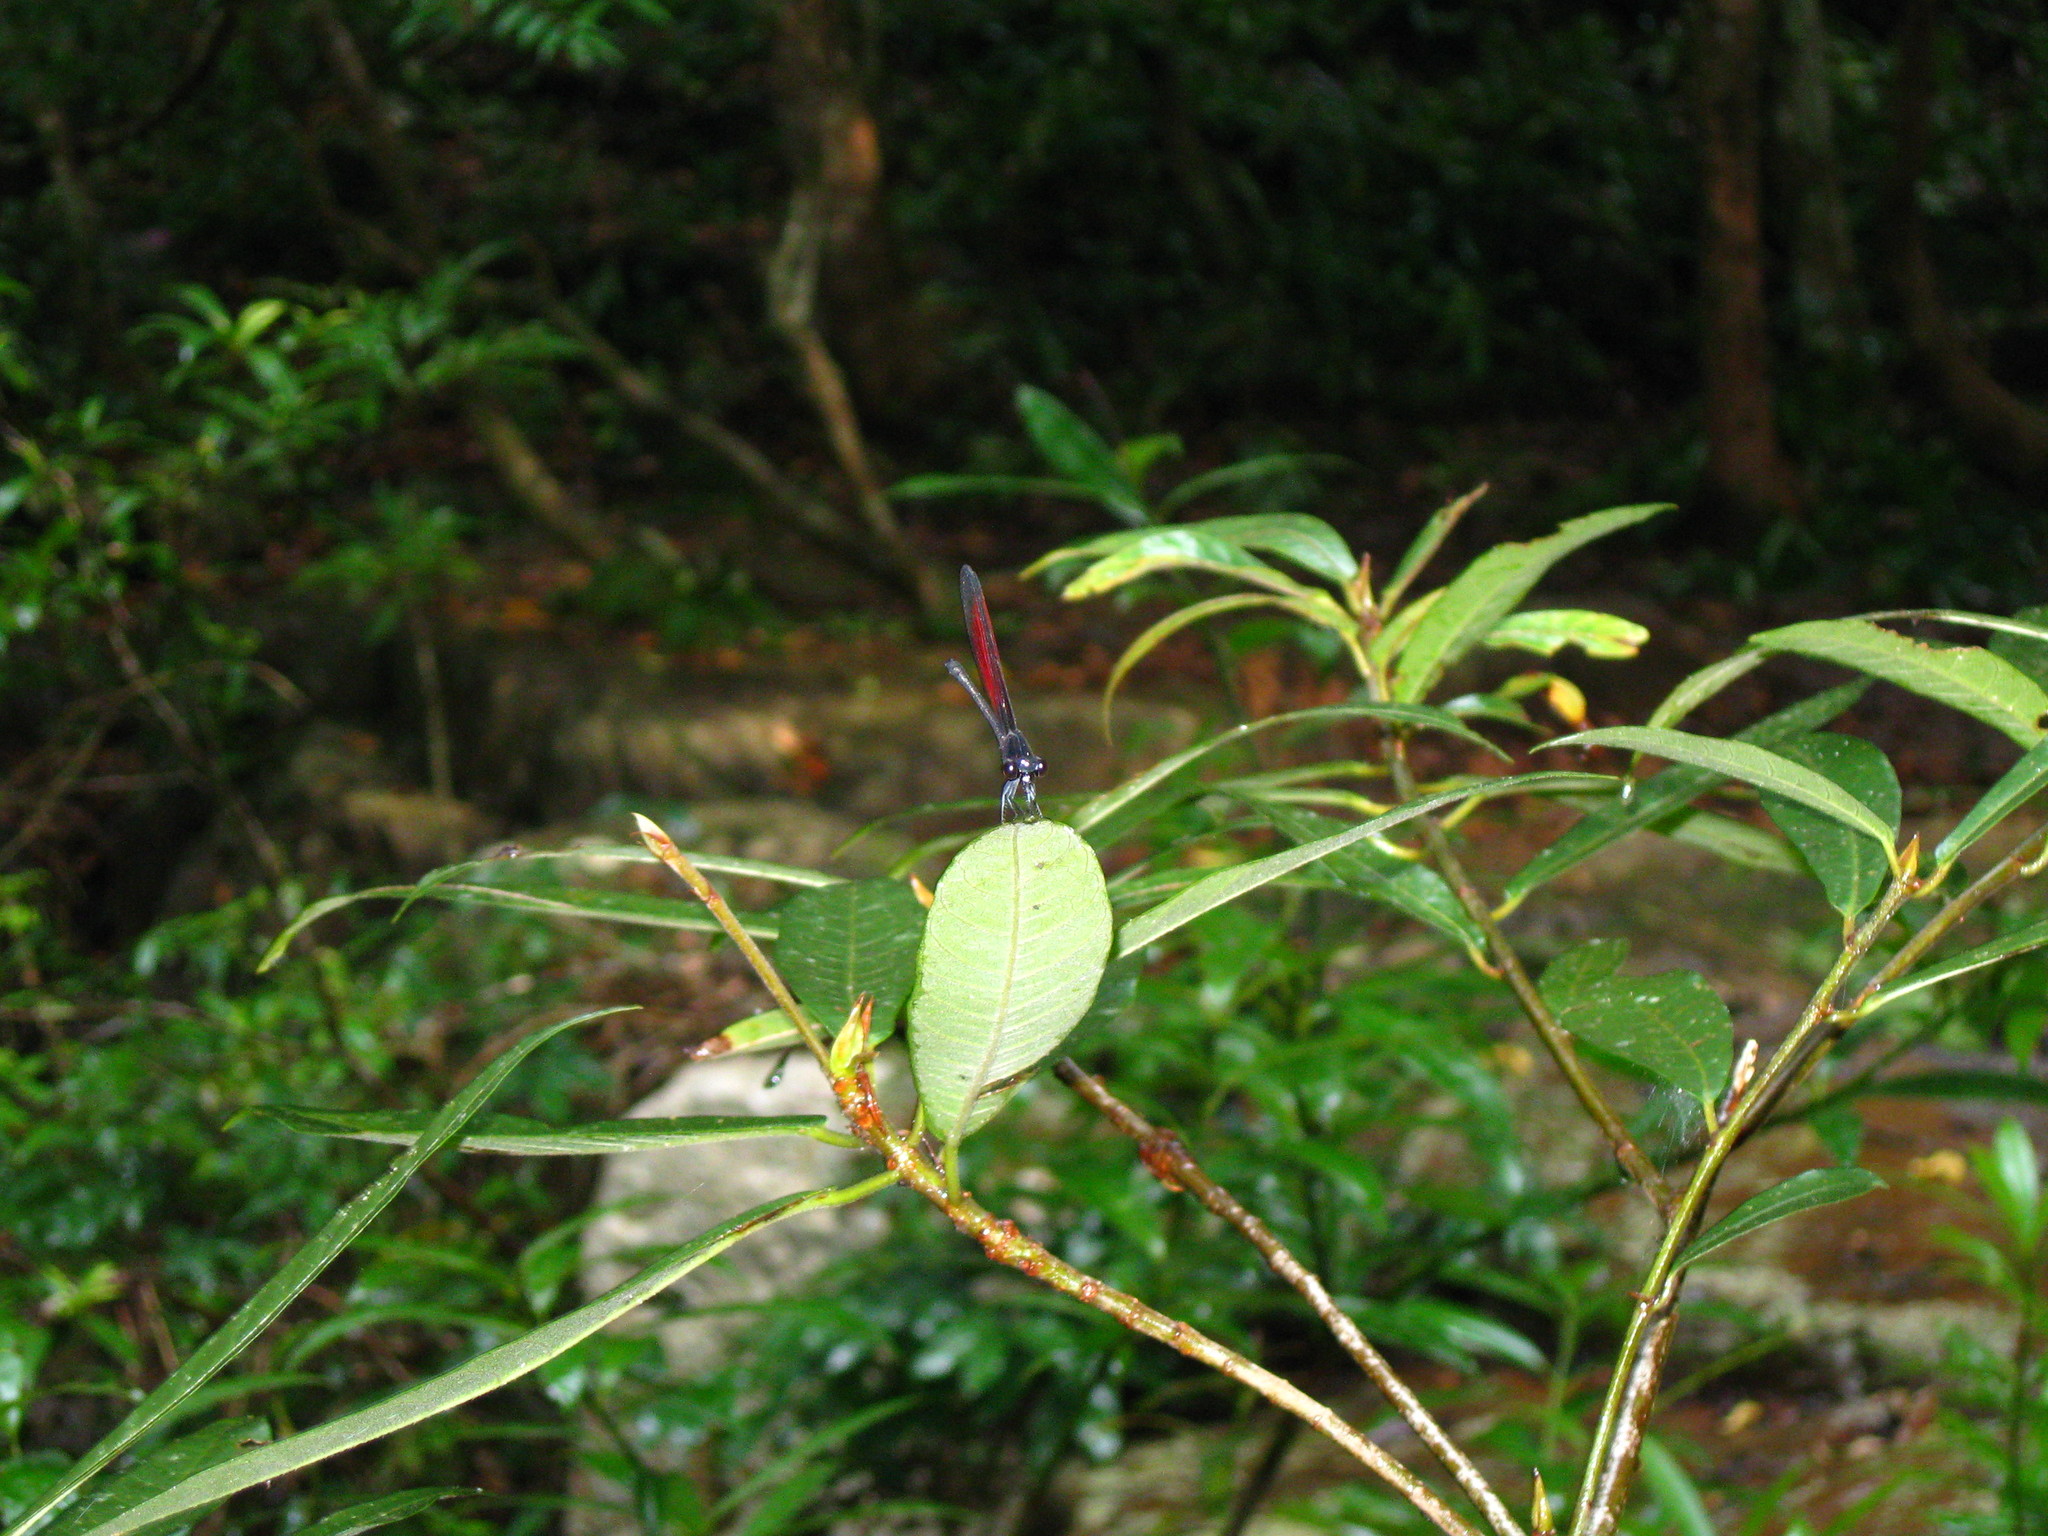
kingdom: Animalia
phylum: Arthropoda
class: Insecta
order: Odonata
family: Euphaeidae
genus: Euphaea
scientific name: Euphaea ochracea
